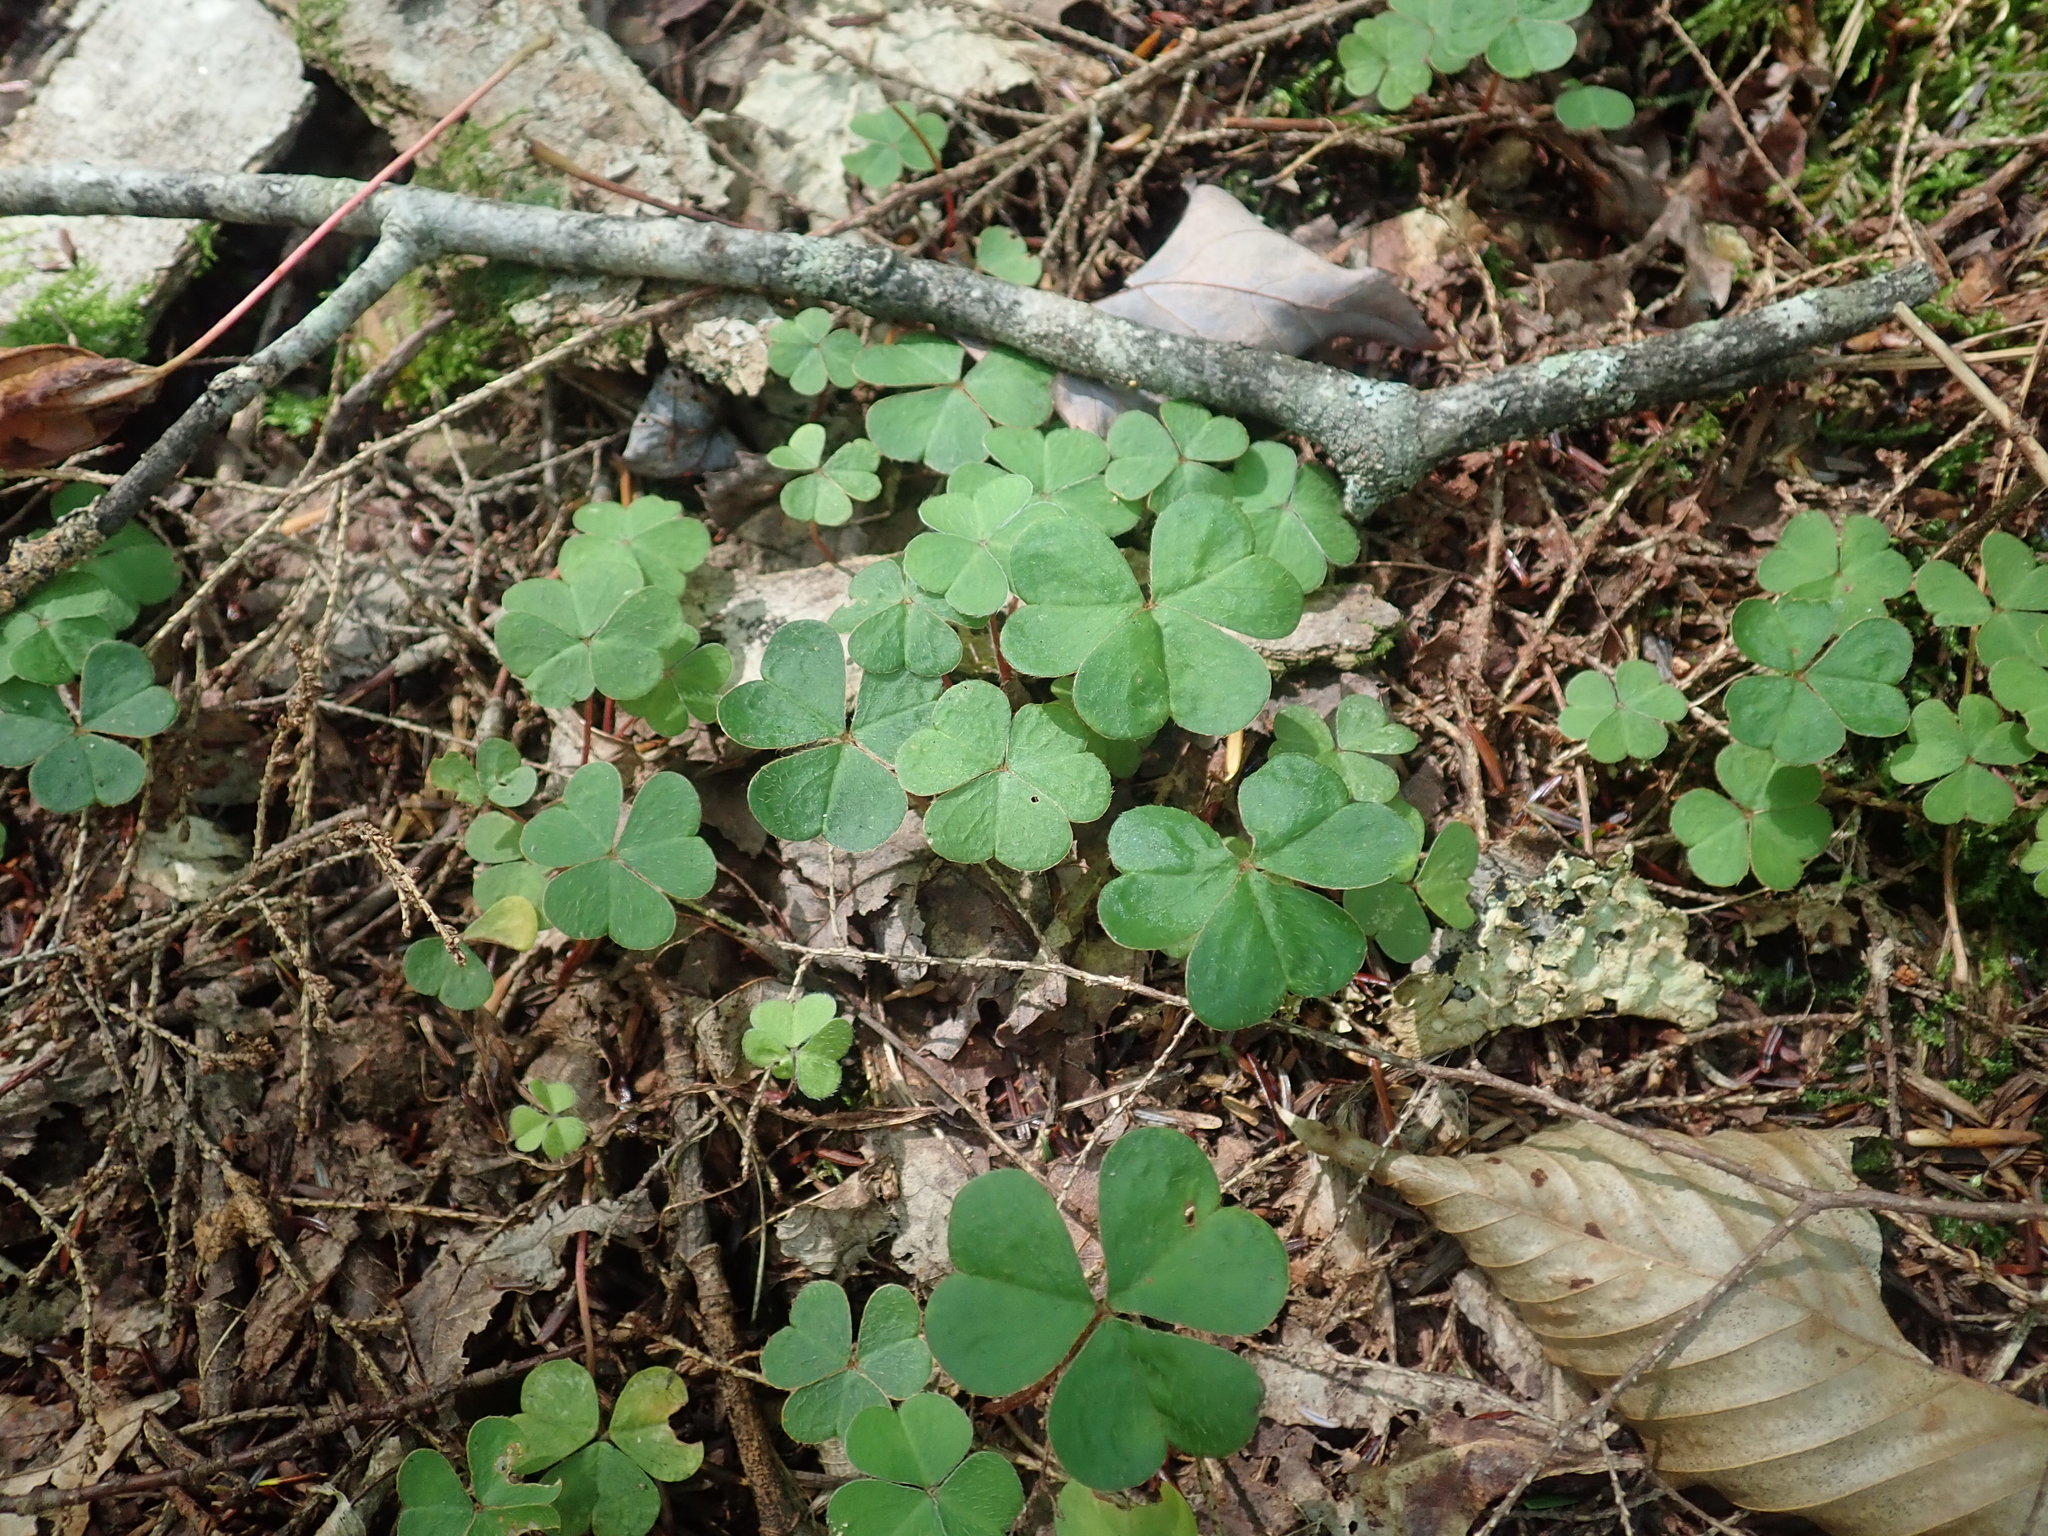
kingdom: Plantae
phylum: Tracheophyta
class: Magnoliopsida
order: Oxalidales
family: Oxalidaceae
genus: Oxalis
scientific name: Oxalis montana
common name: American wood-sorrel
